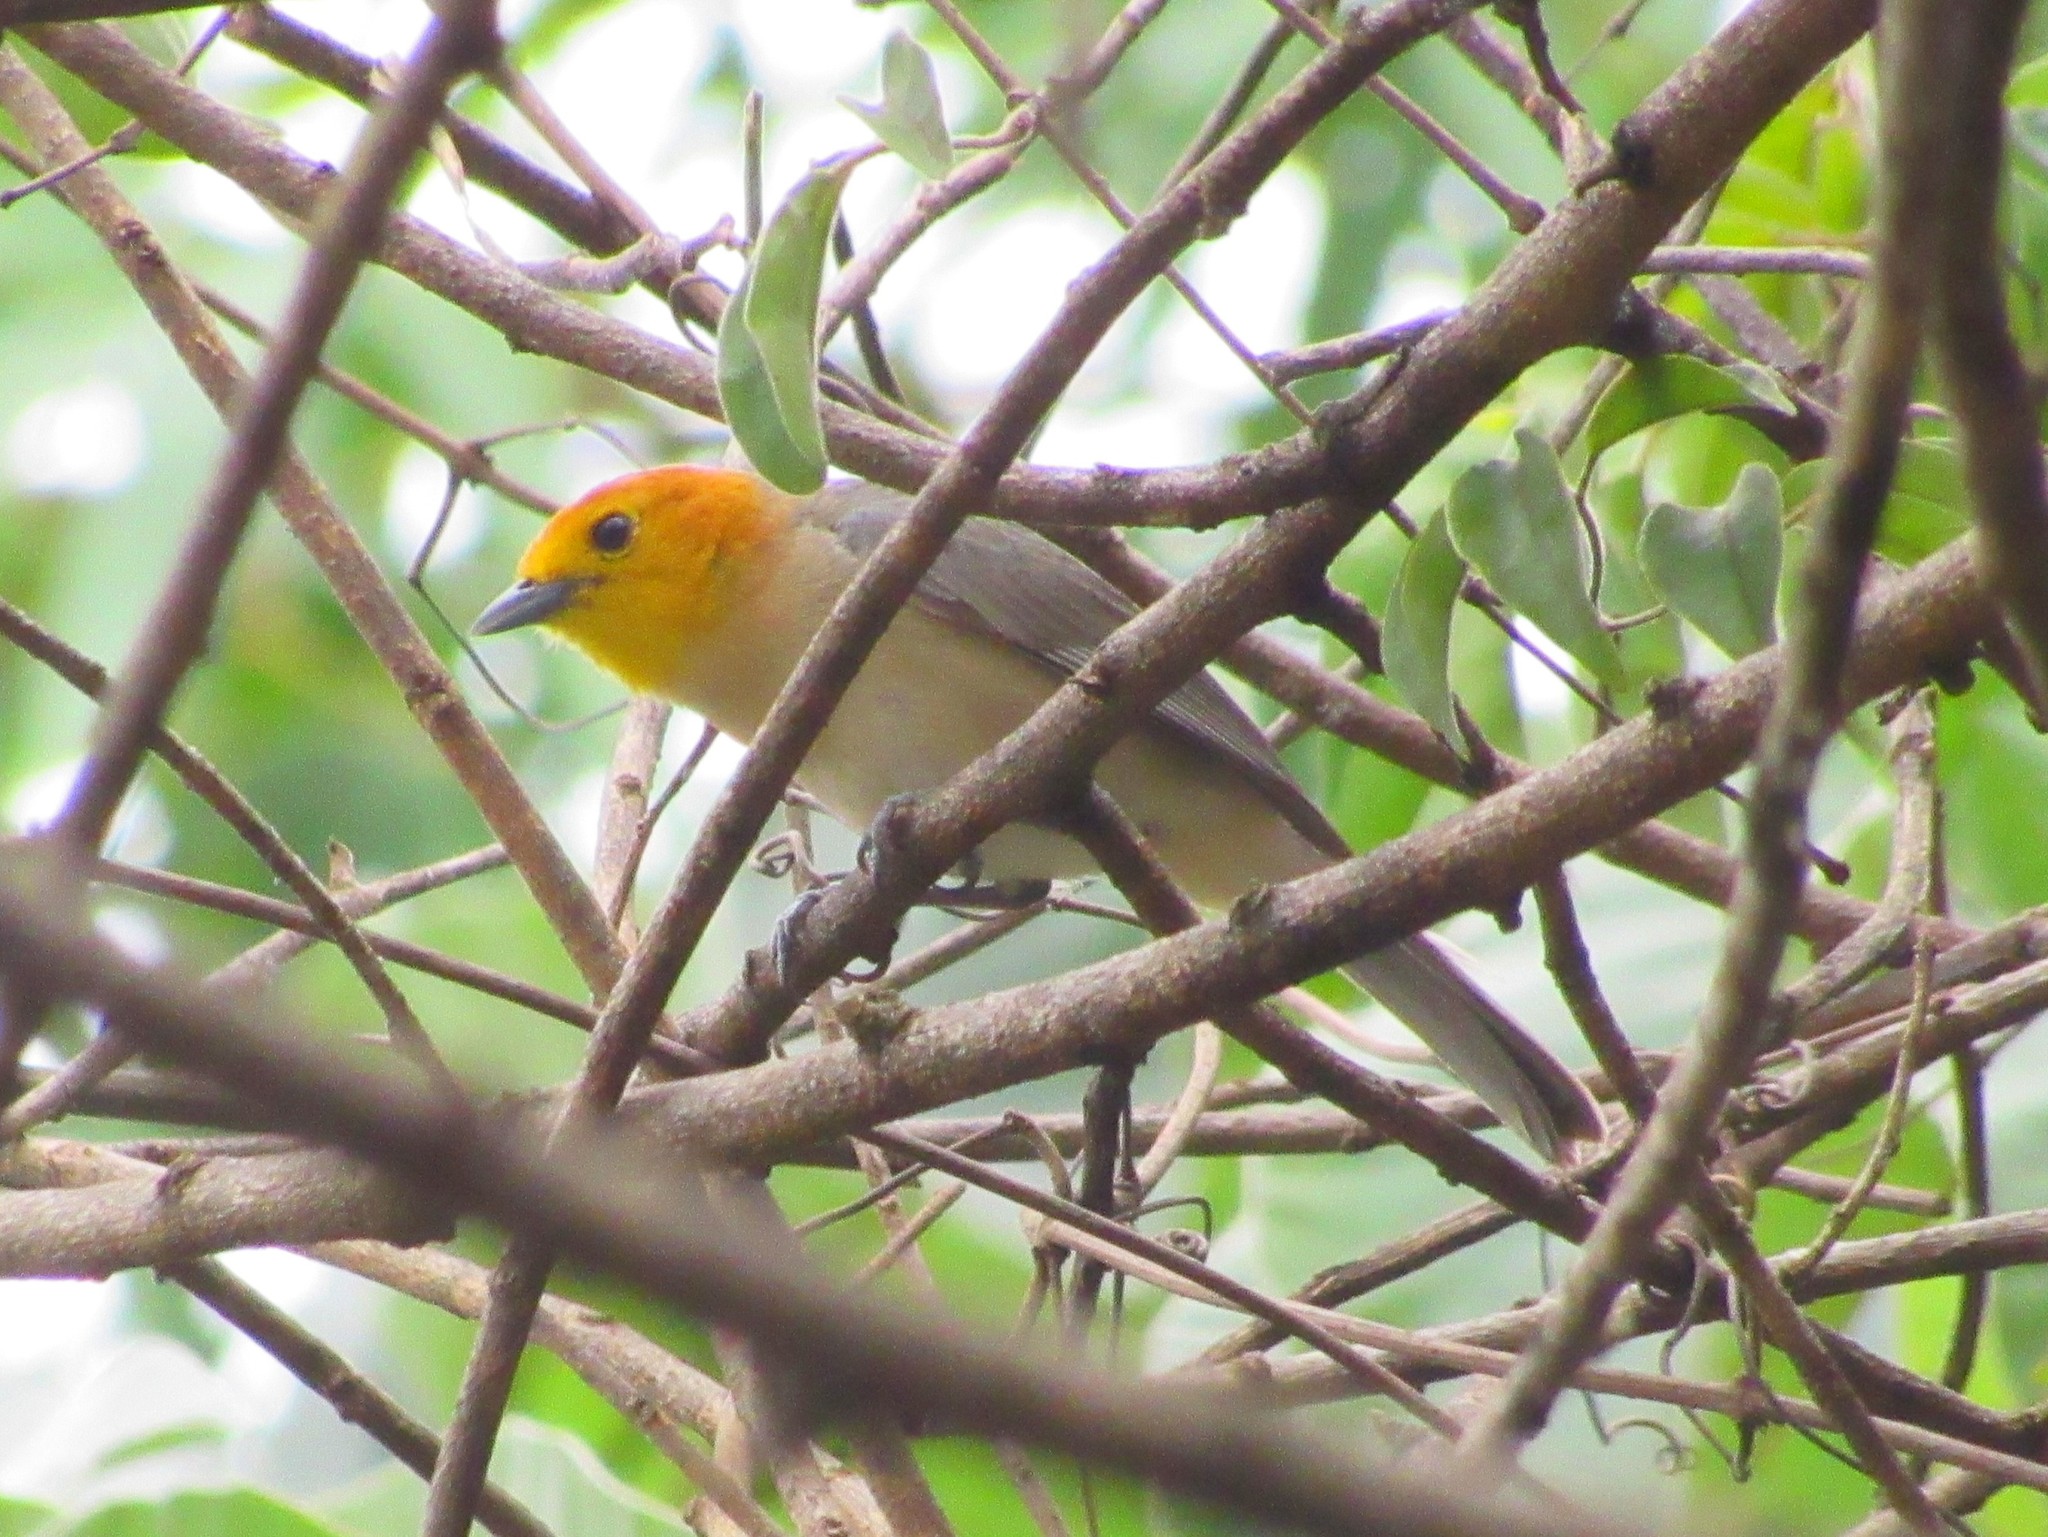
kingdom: Animalia
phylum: Chordata
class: Aves
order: Passeriformes
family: Thraupidae
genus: Thlypopsis
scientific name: Thlypopsis sordida
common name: Orange-headed tanager
